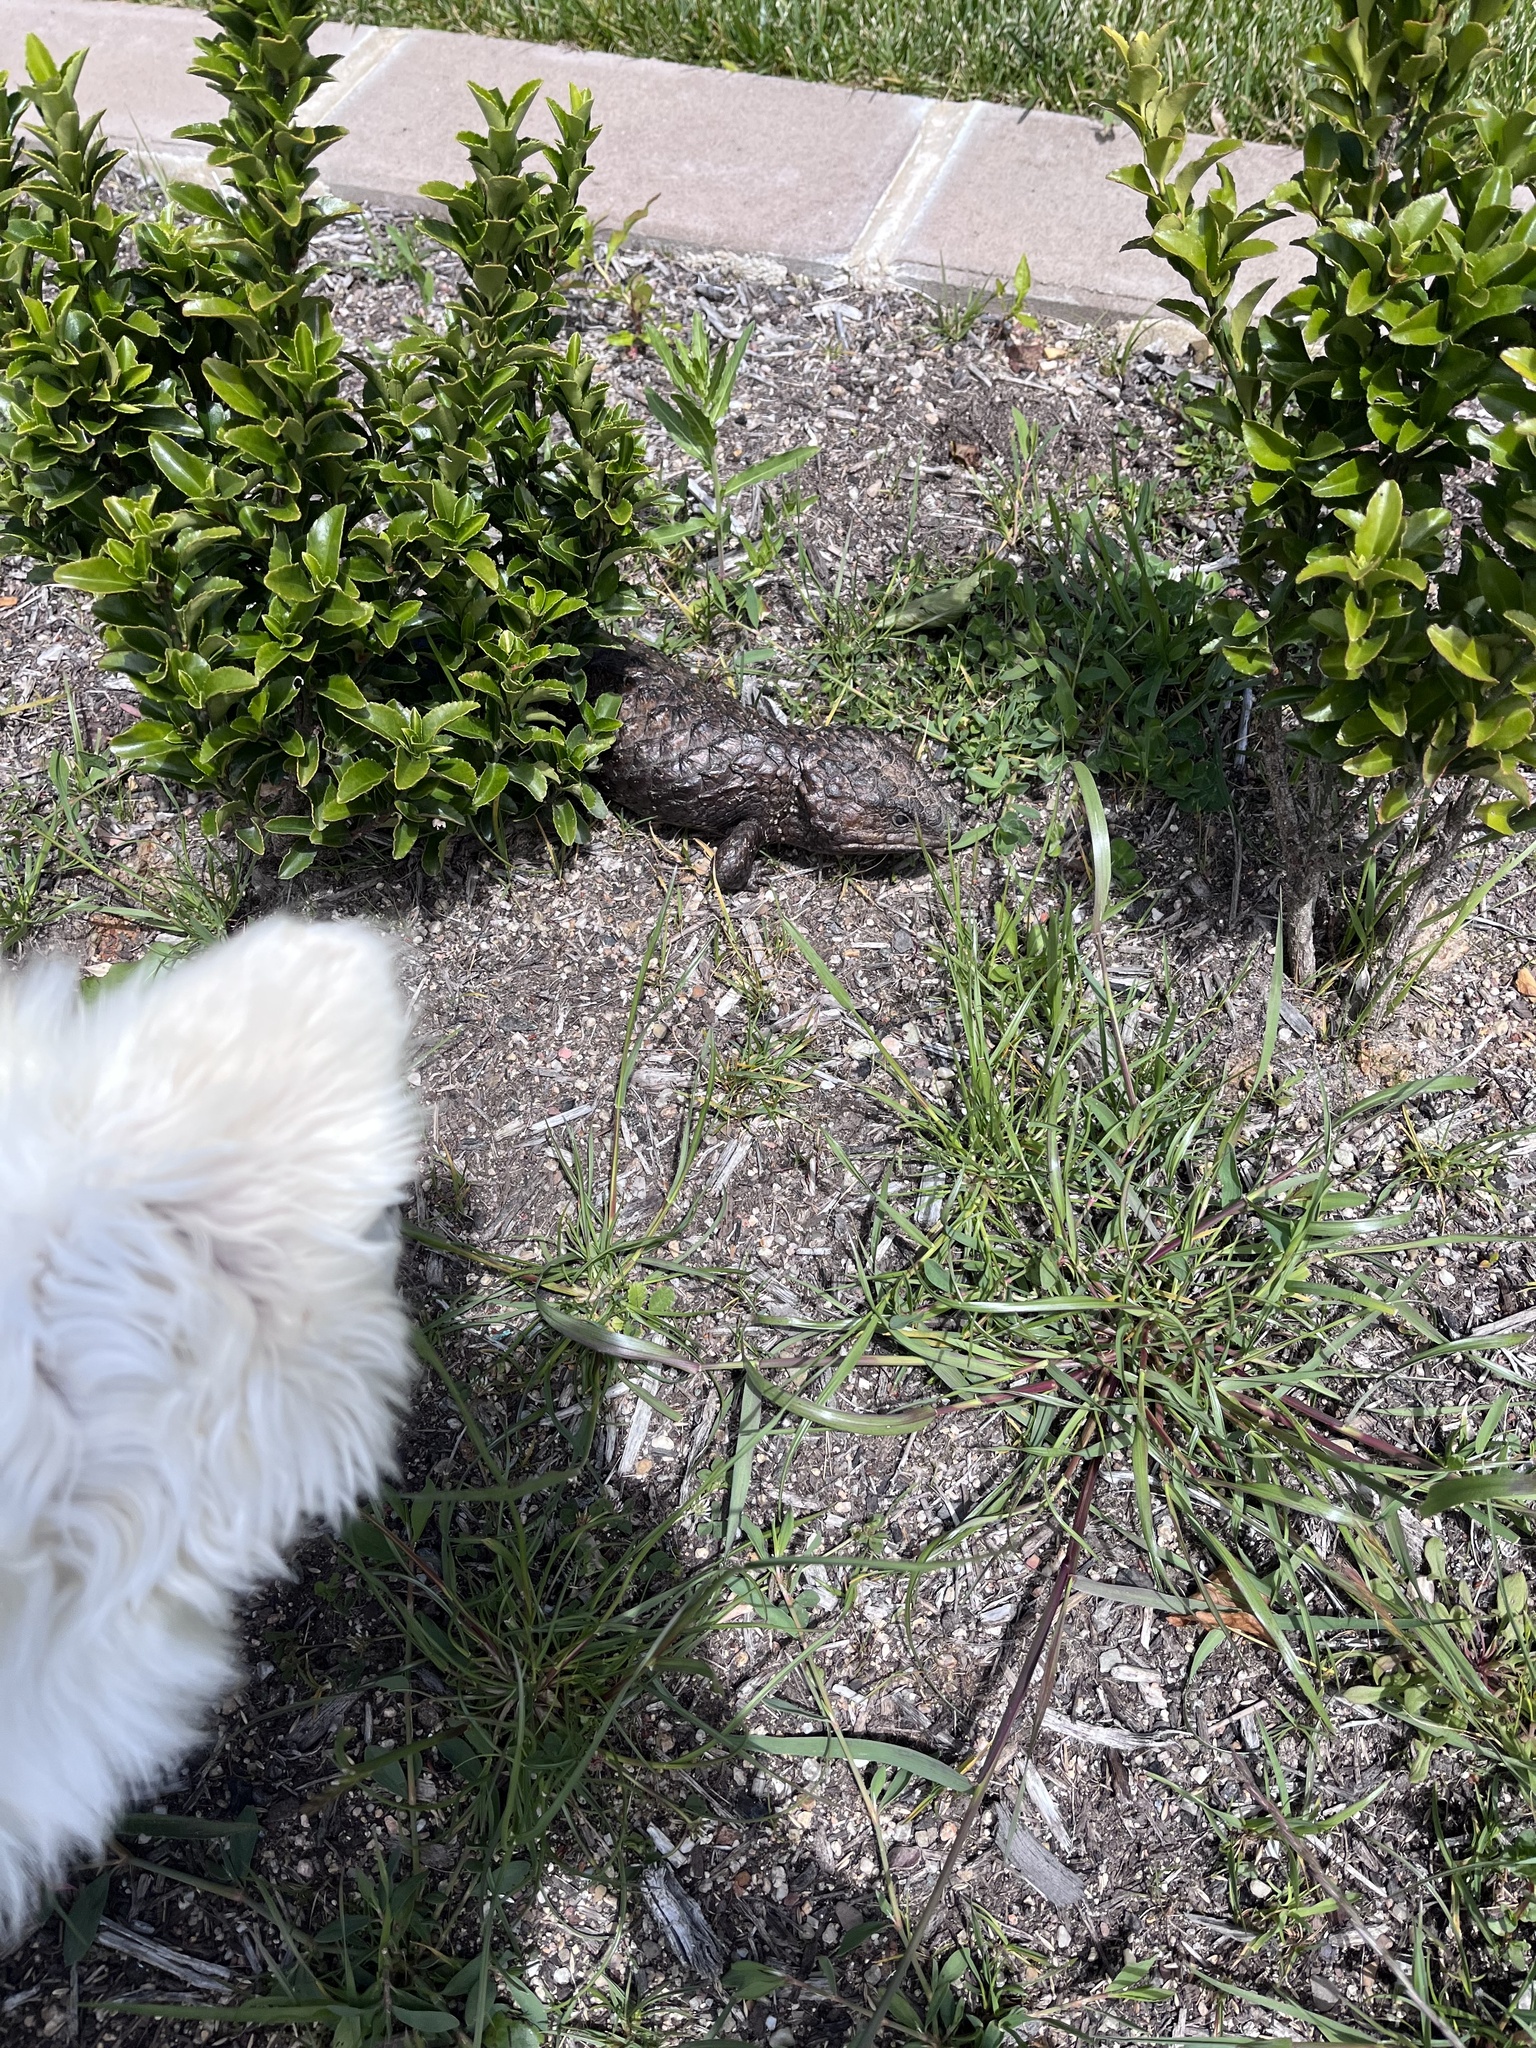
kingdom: Animalia
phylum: Chordata
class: Squamata
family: Scincidae
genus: Tiliqua
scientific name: Tiliqua rugosa
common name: Pinecone lizard
